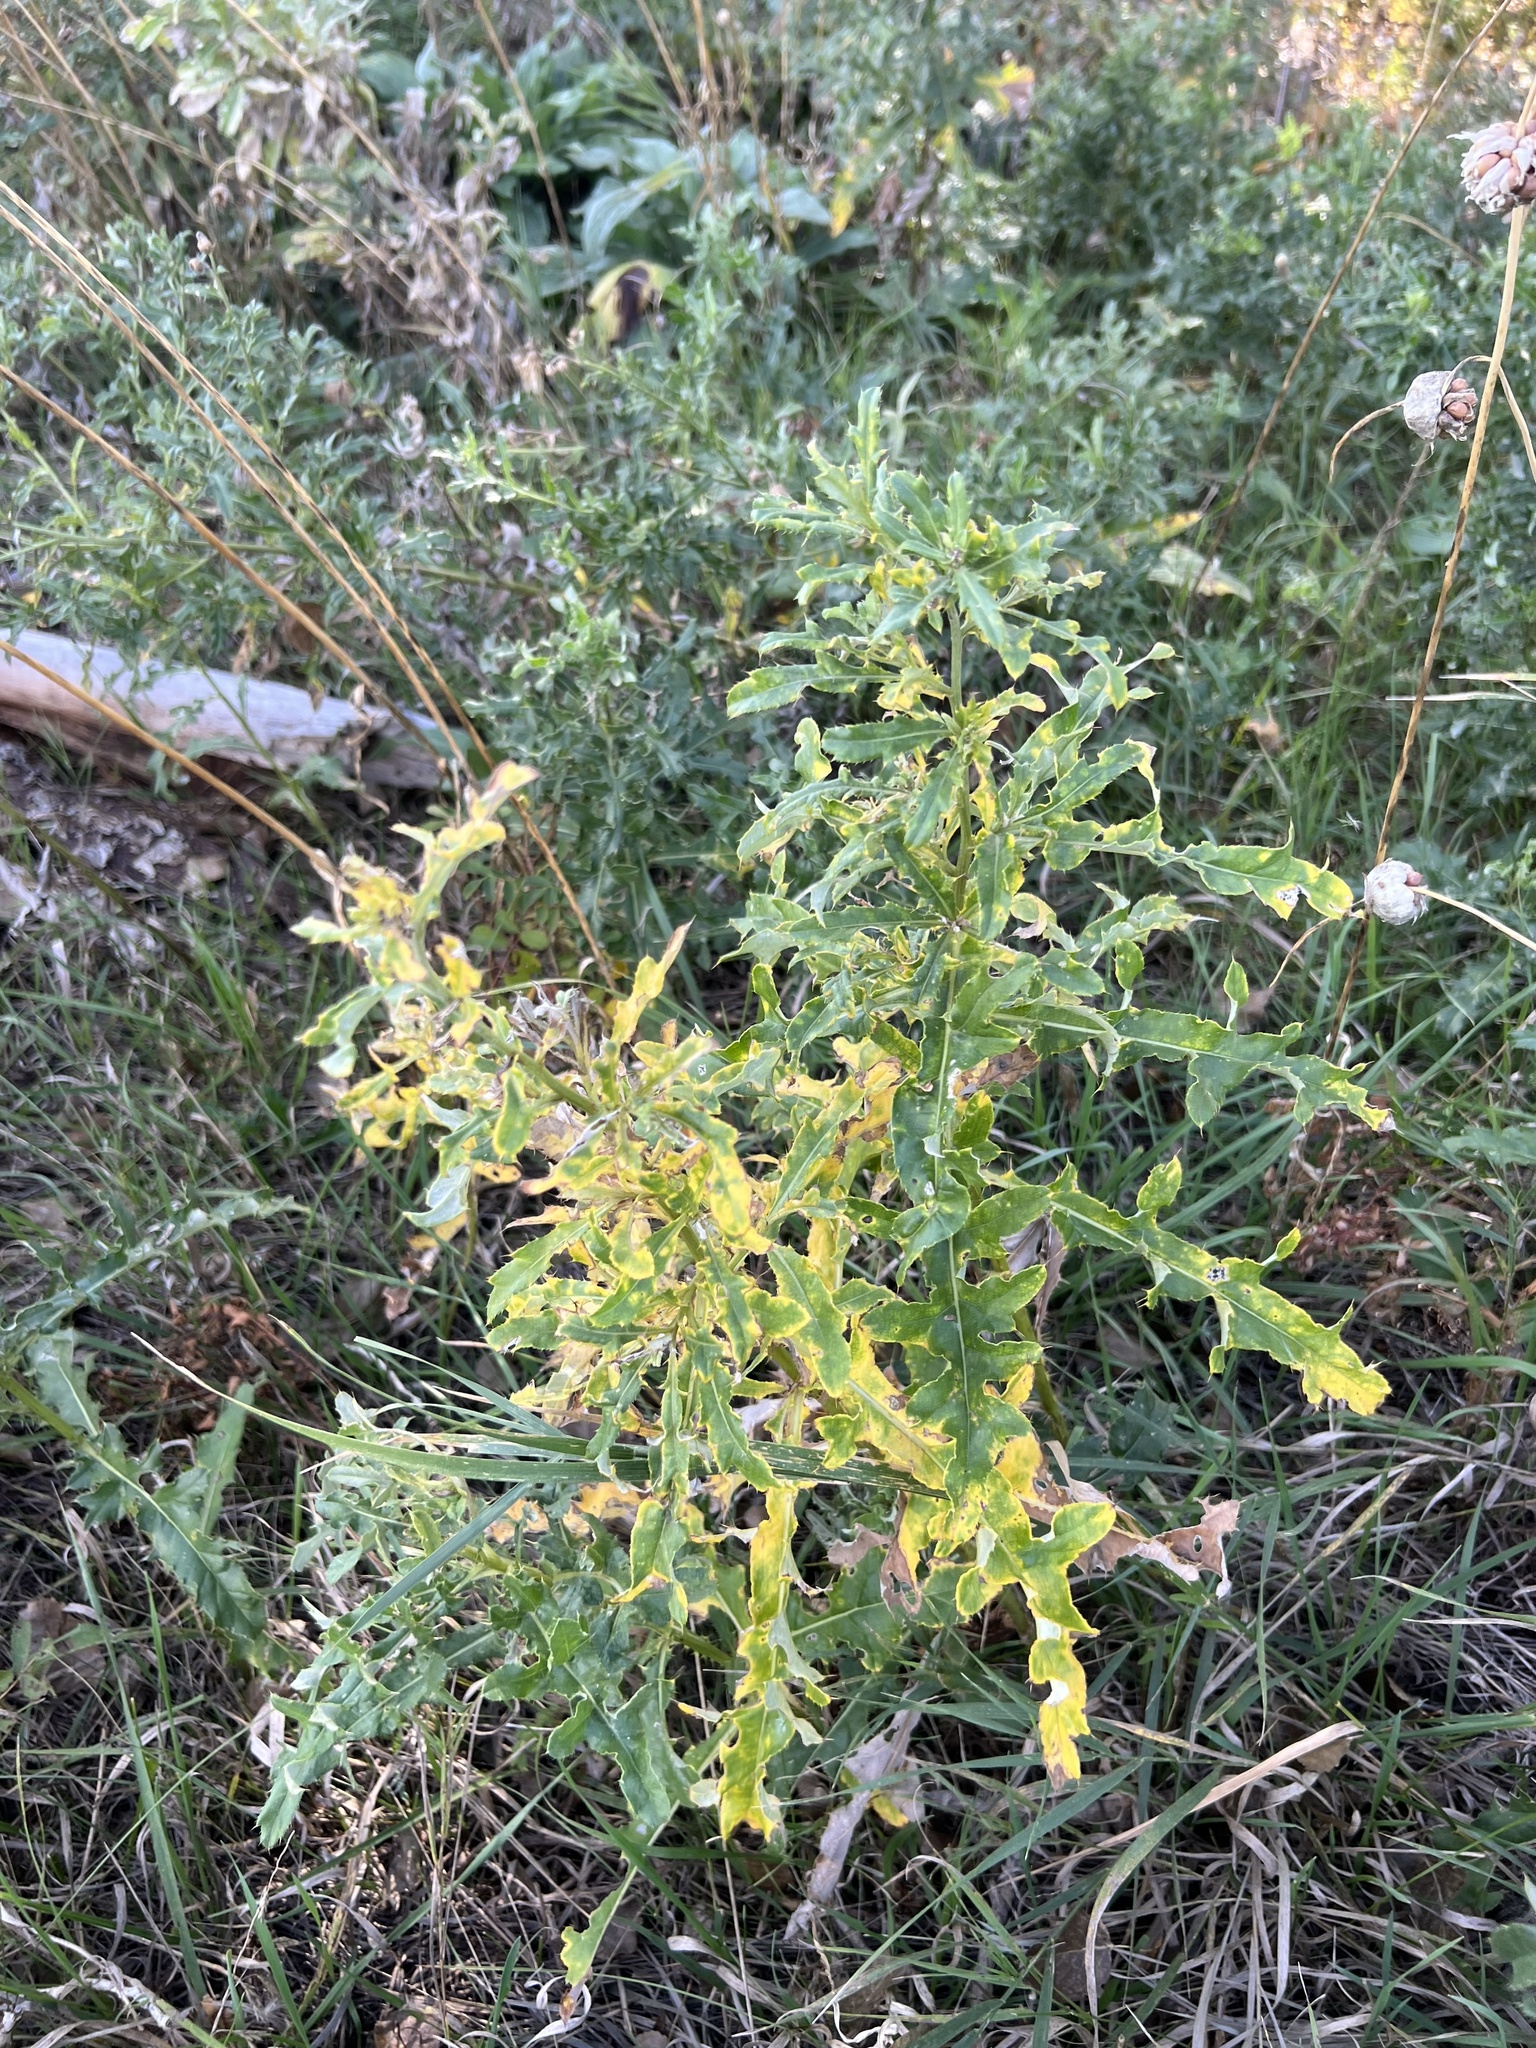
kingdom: Plantae
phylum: Tracheophyta
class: Magnoliopsida
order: Asterales
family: Asteraceae
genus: Cirsium
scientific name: Cirsium arvense
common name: Creeping thistle
